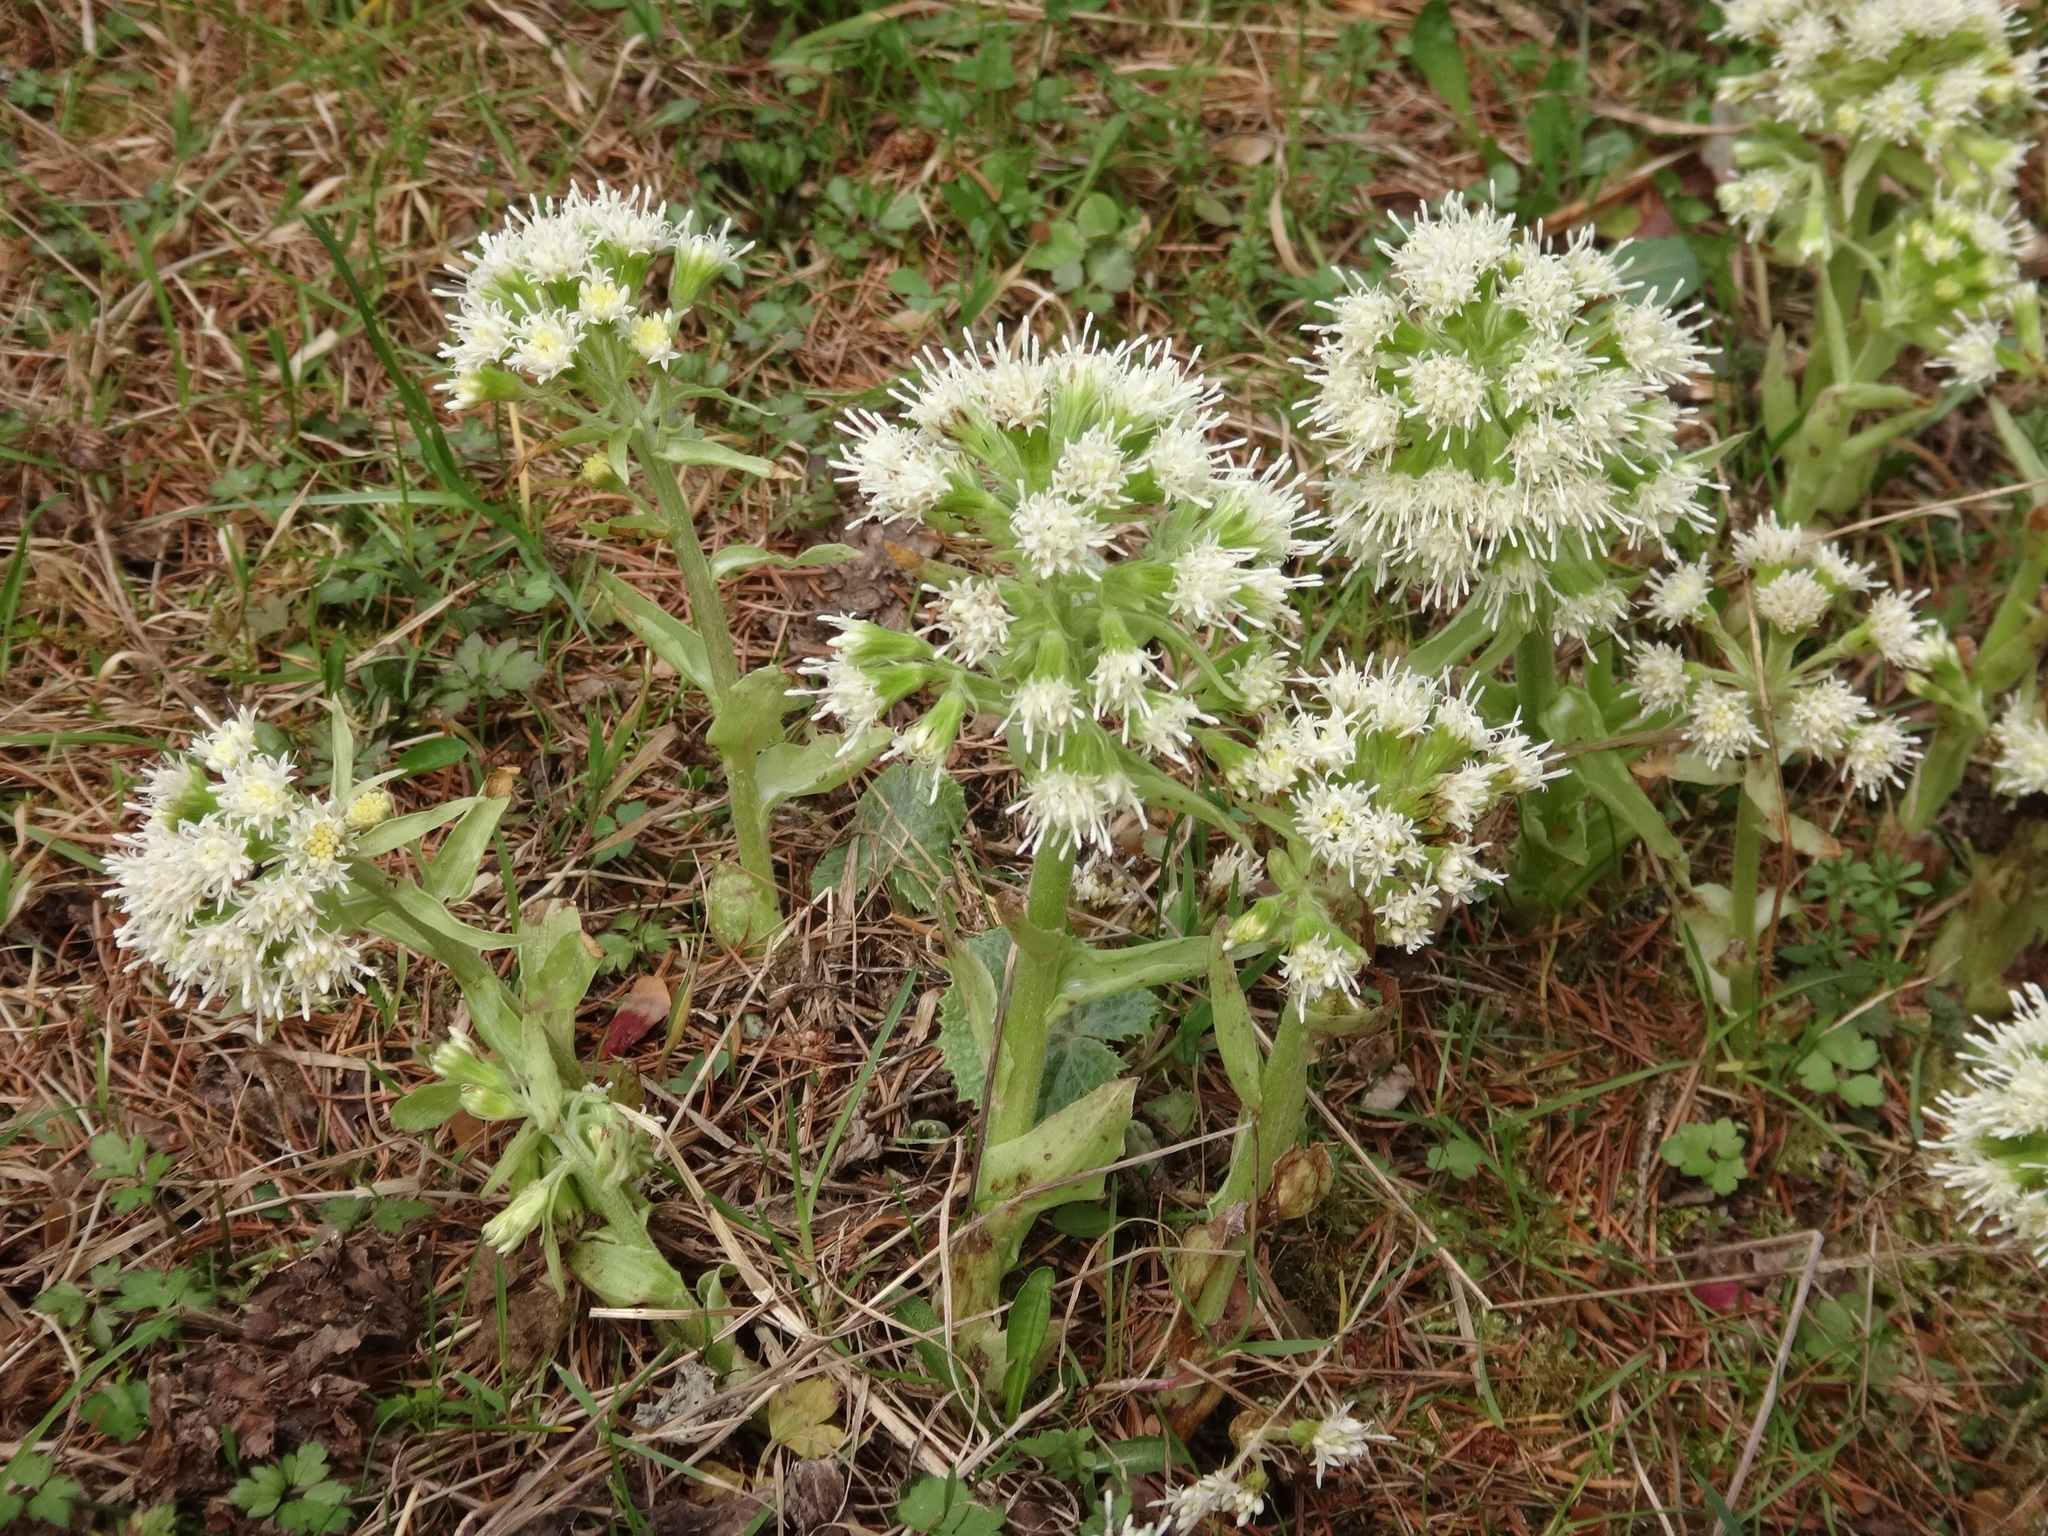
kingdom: Plantae
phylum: Tracheophyta
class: Magnoliopsida
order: Asterales
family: Asteraceae
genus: Petasites
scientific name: Petasites albus
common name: White butterbur
